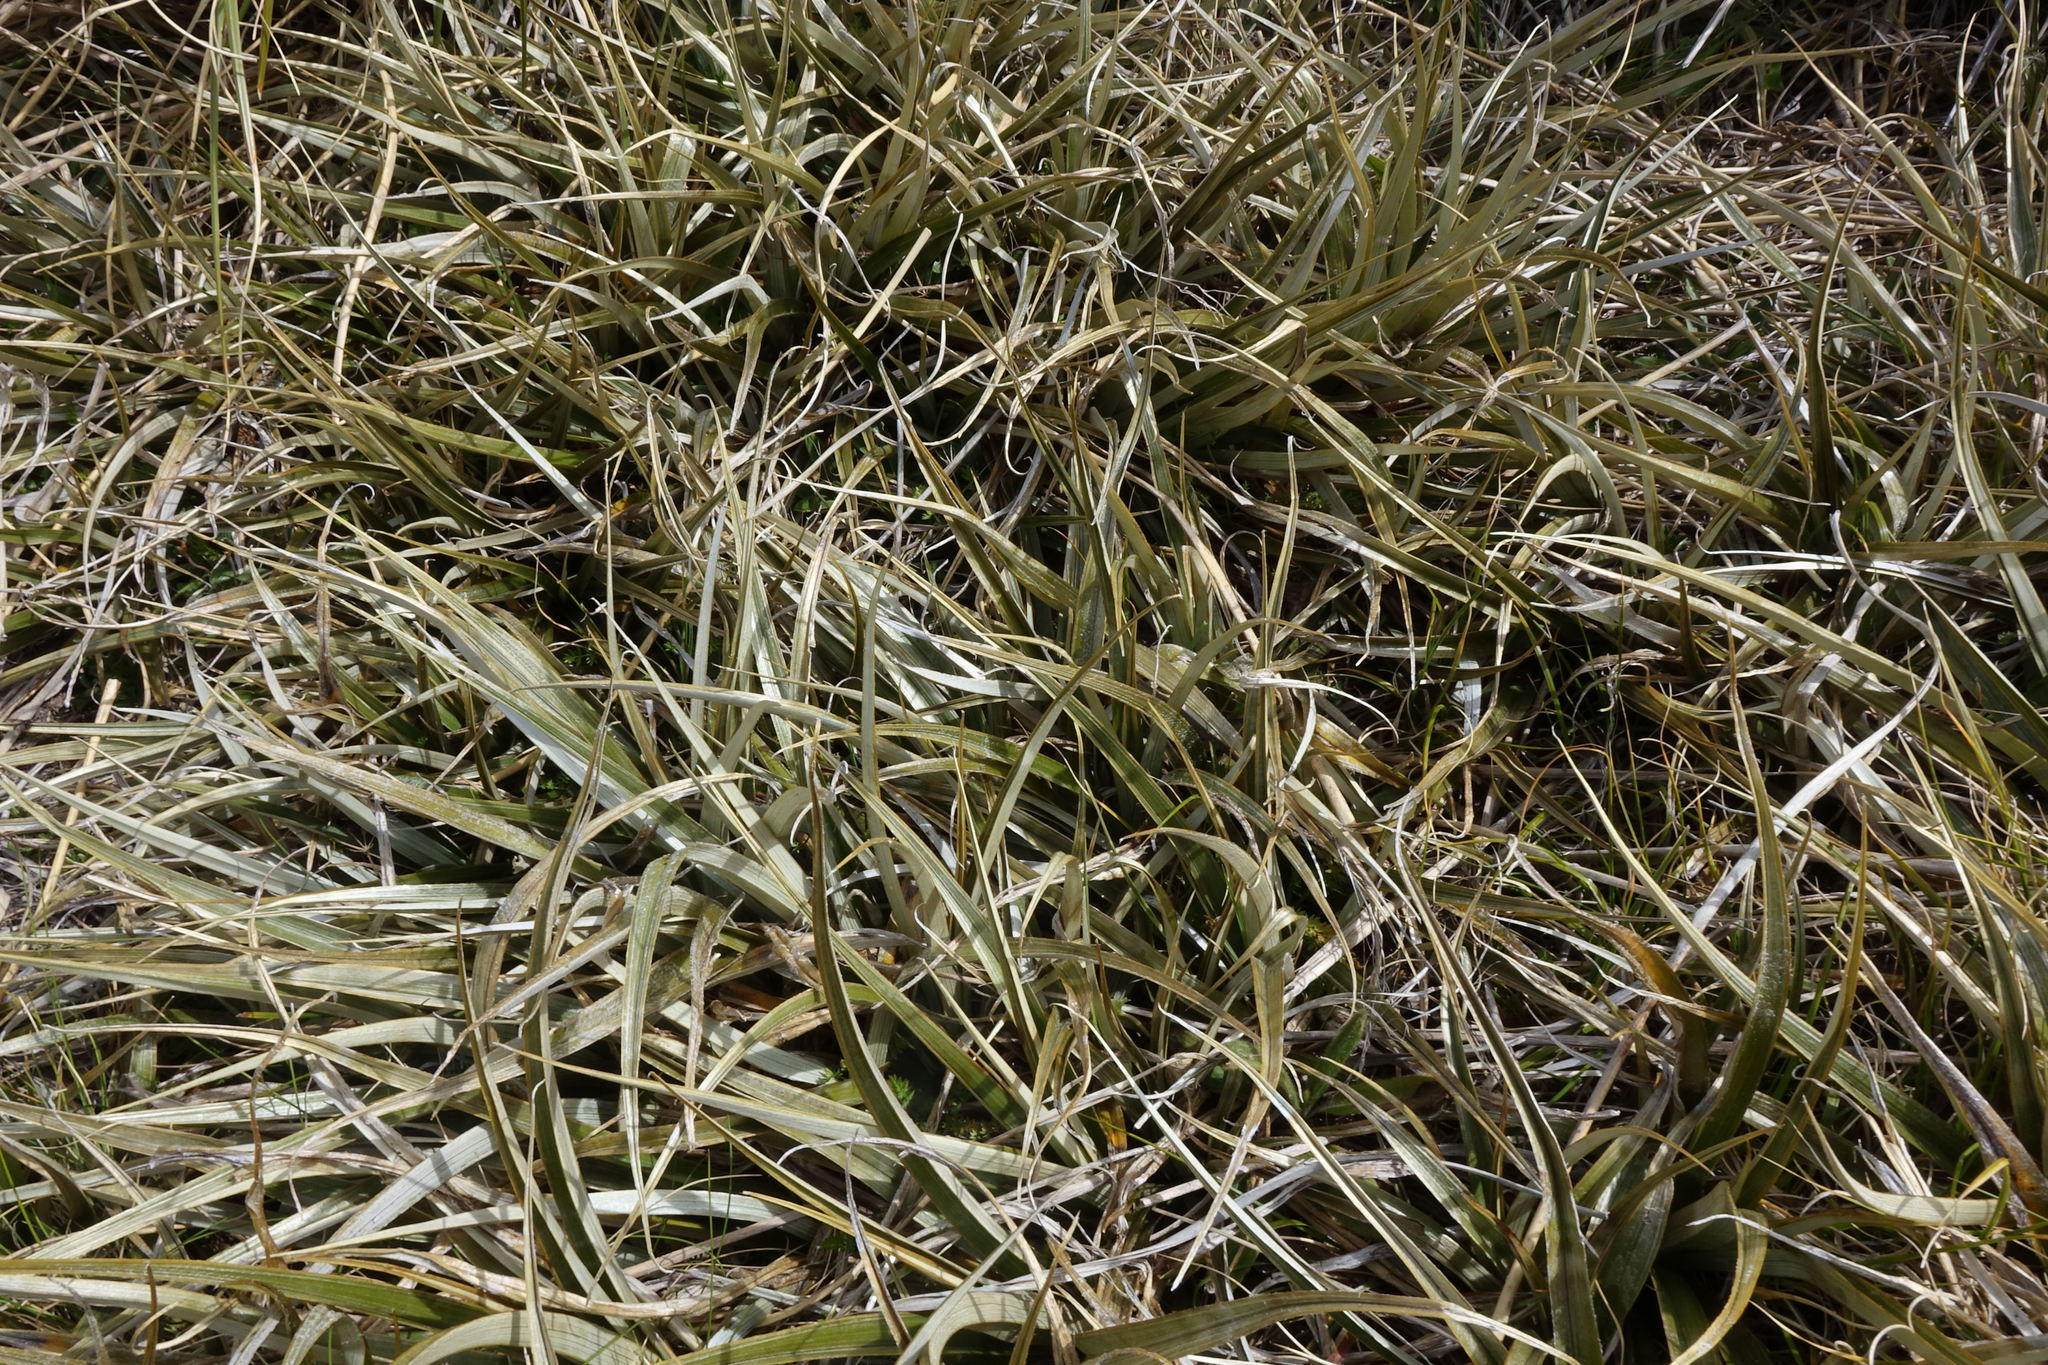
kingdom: Plantae
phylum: Tracheophyta
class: Liliopsida
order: Asparagales
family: Asteliaceae
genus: Astelia
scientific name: Astelia nivicola
